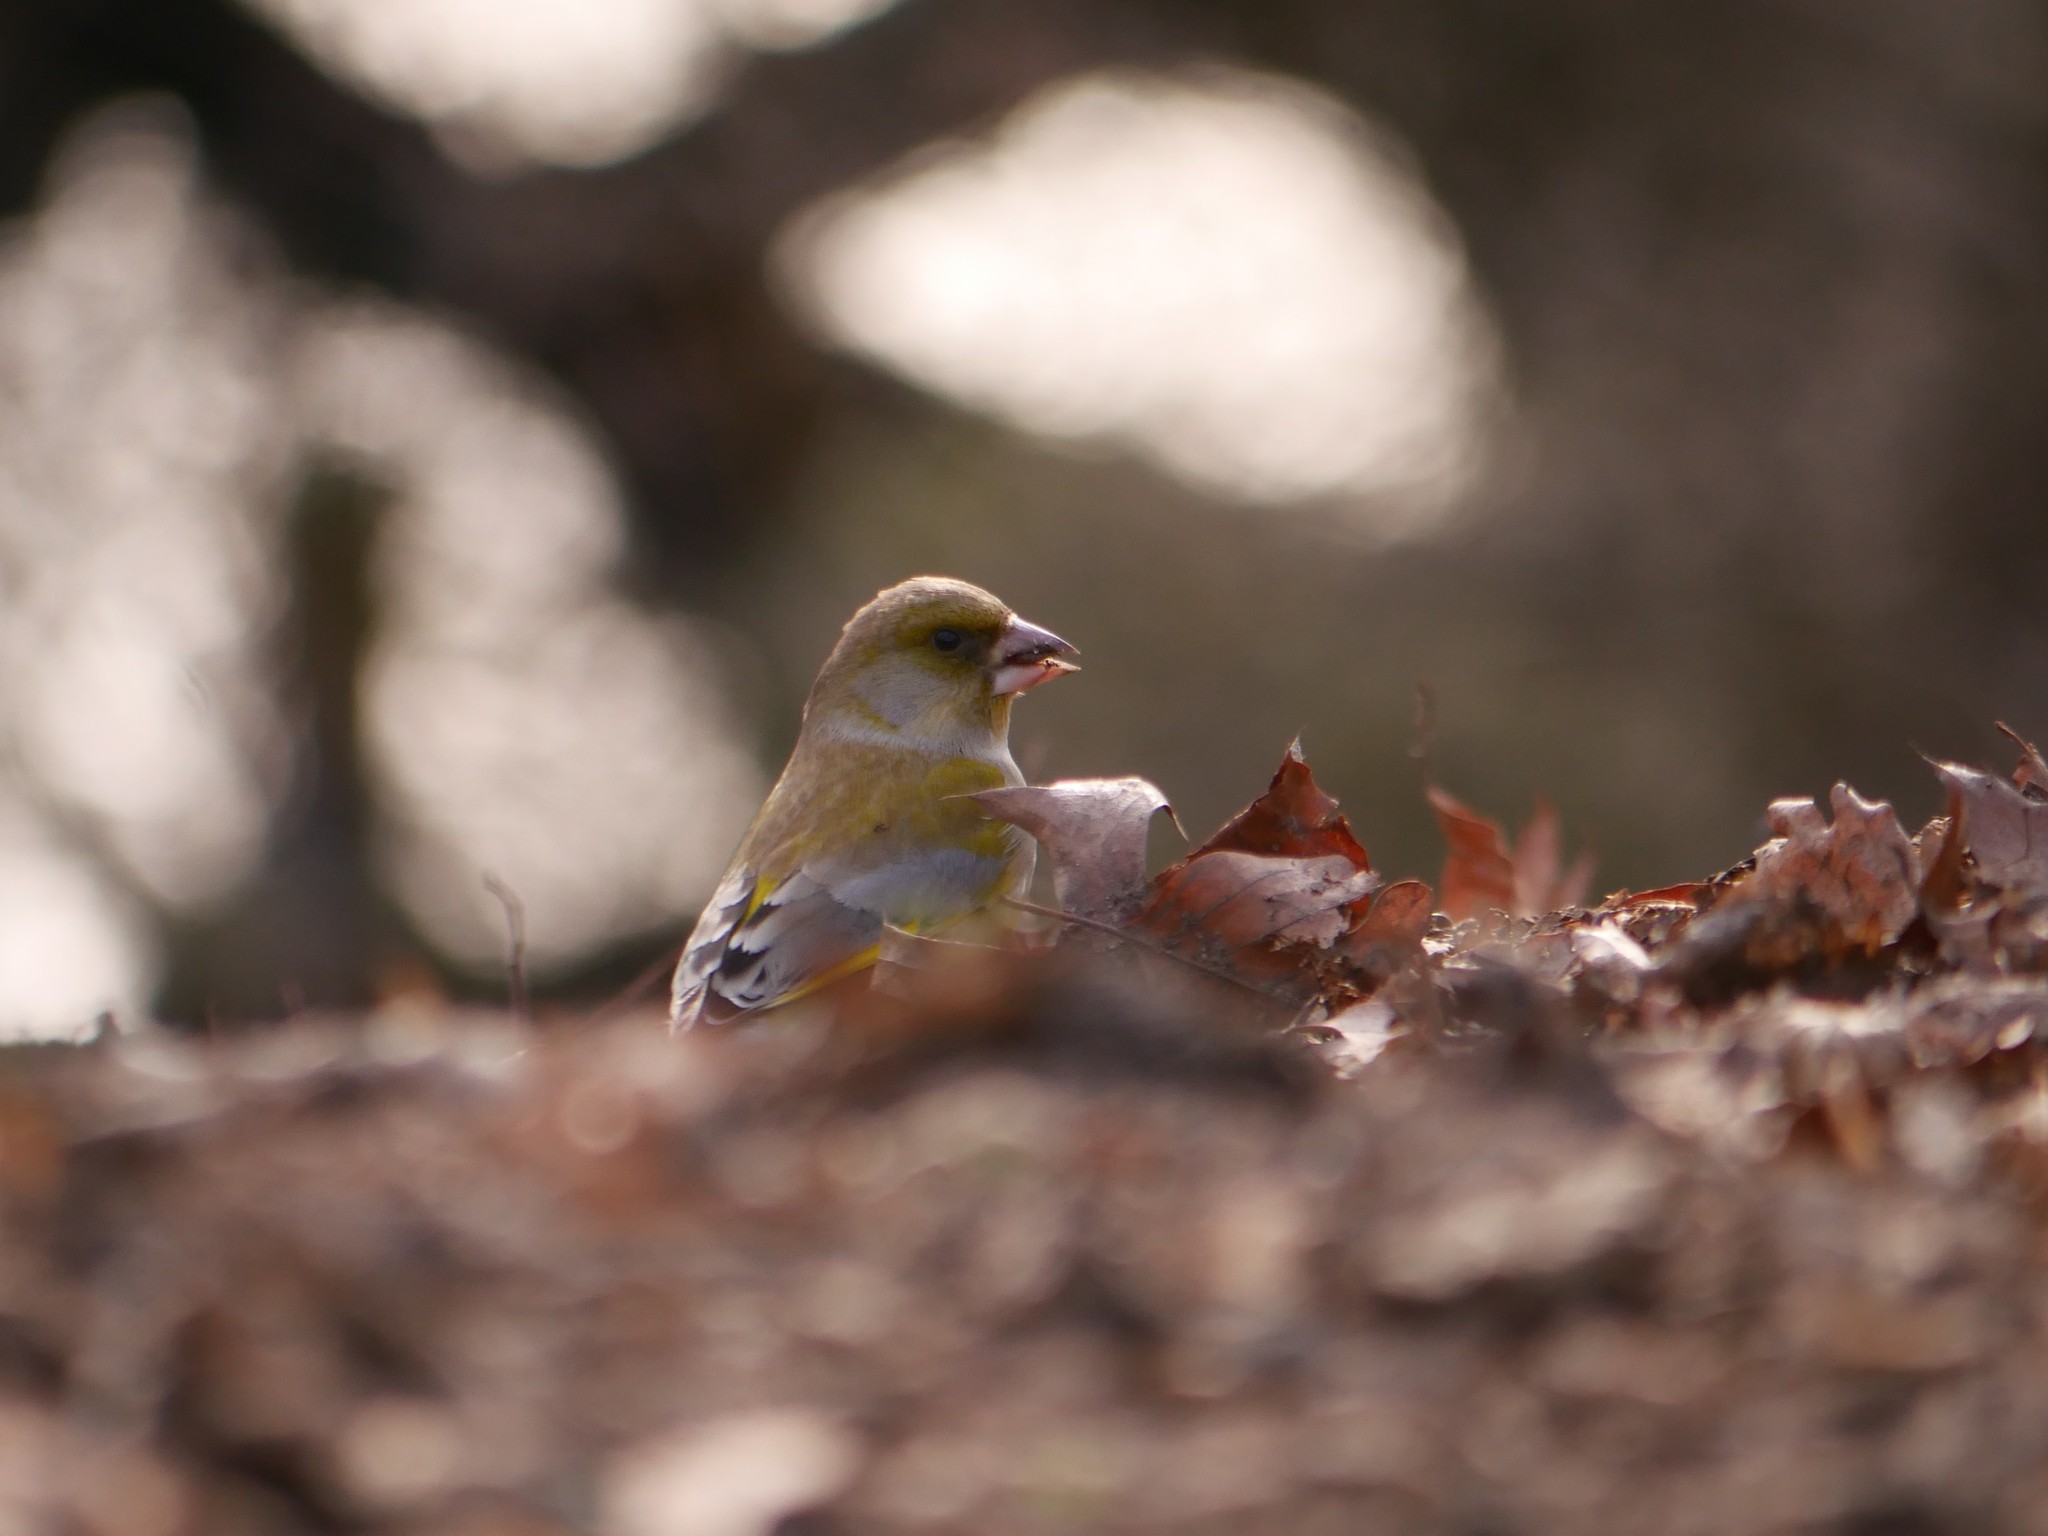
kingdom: Plantae
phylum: Tracheophyta
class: Liliopsida
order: Poales
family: Poaceae
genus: Chloris
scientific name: Chloris chloris
